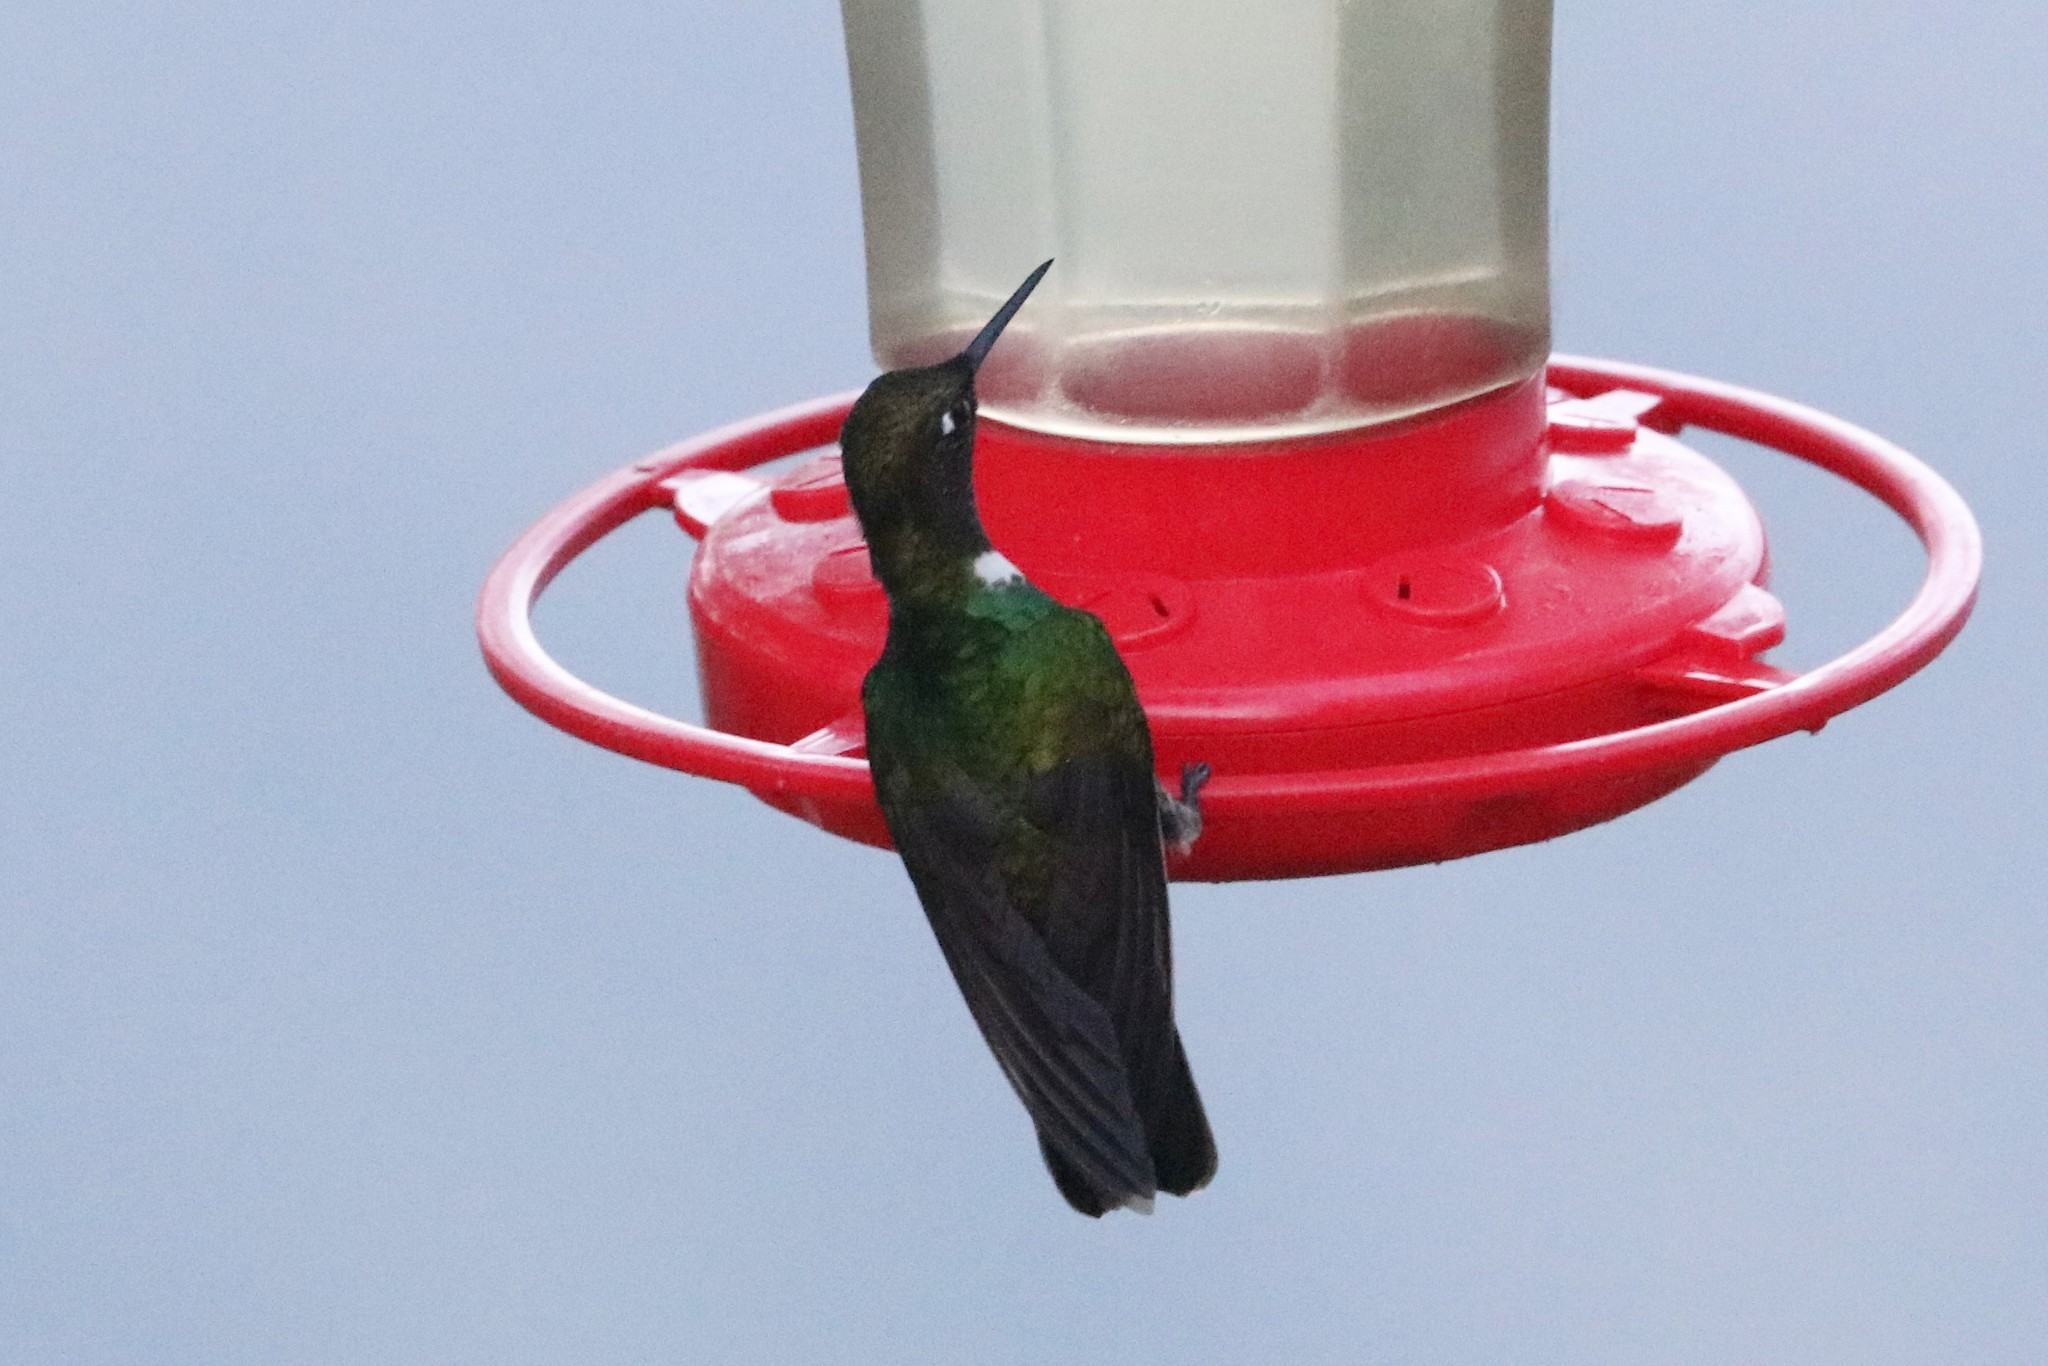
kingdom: Animalia
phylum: Chordata
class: Aves
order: Apodiformes
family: Trochilidae
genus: Heliangelus
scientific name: Heliangelus clarisse
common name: Longuemare's sunangel
